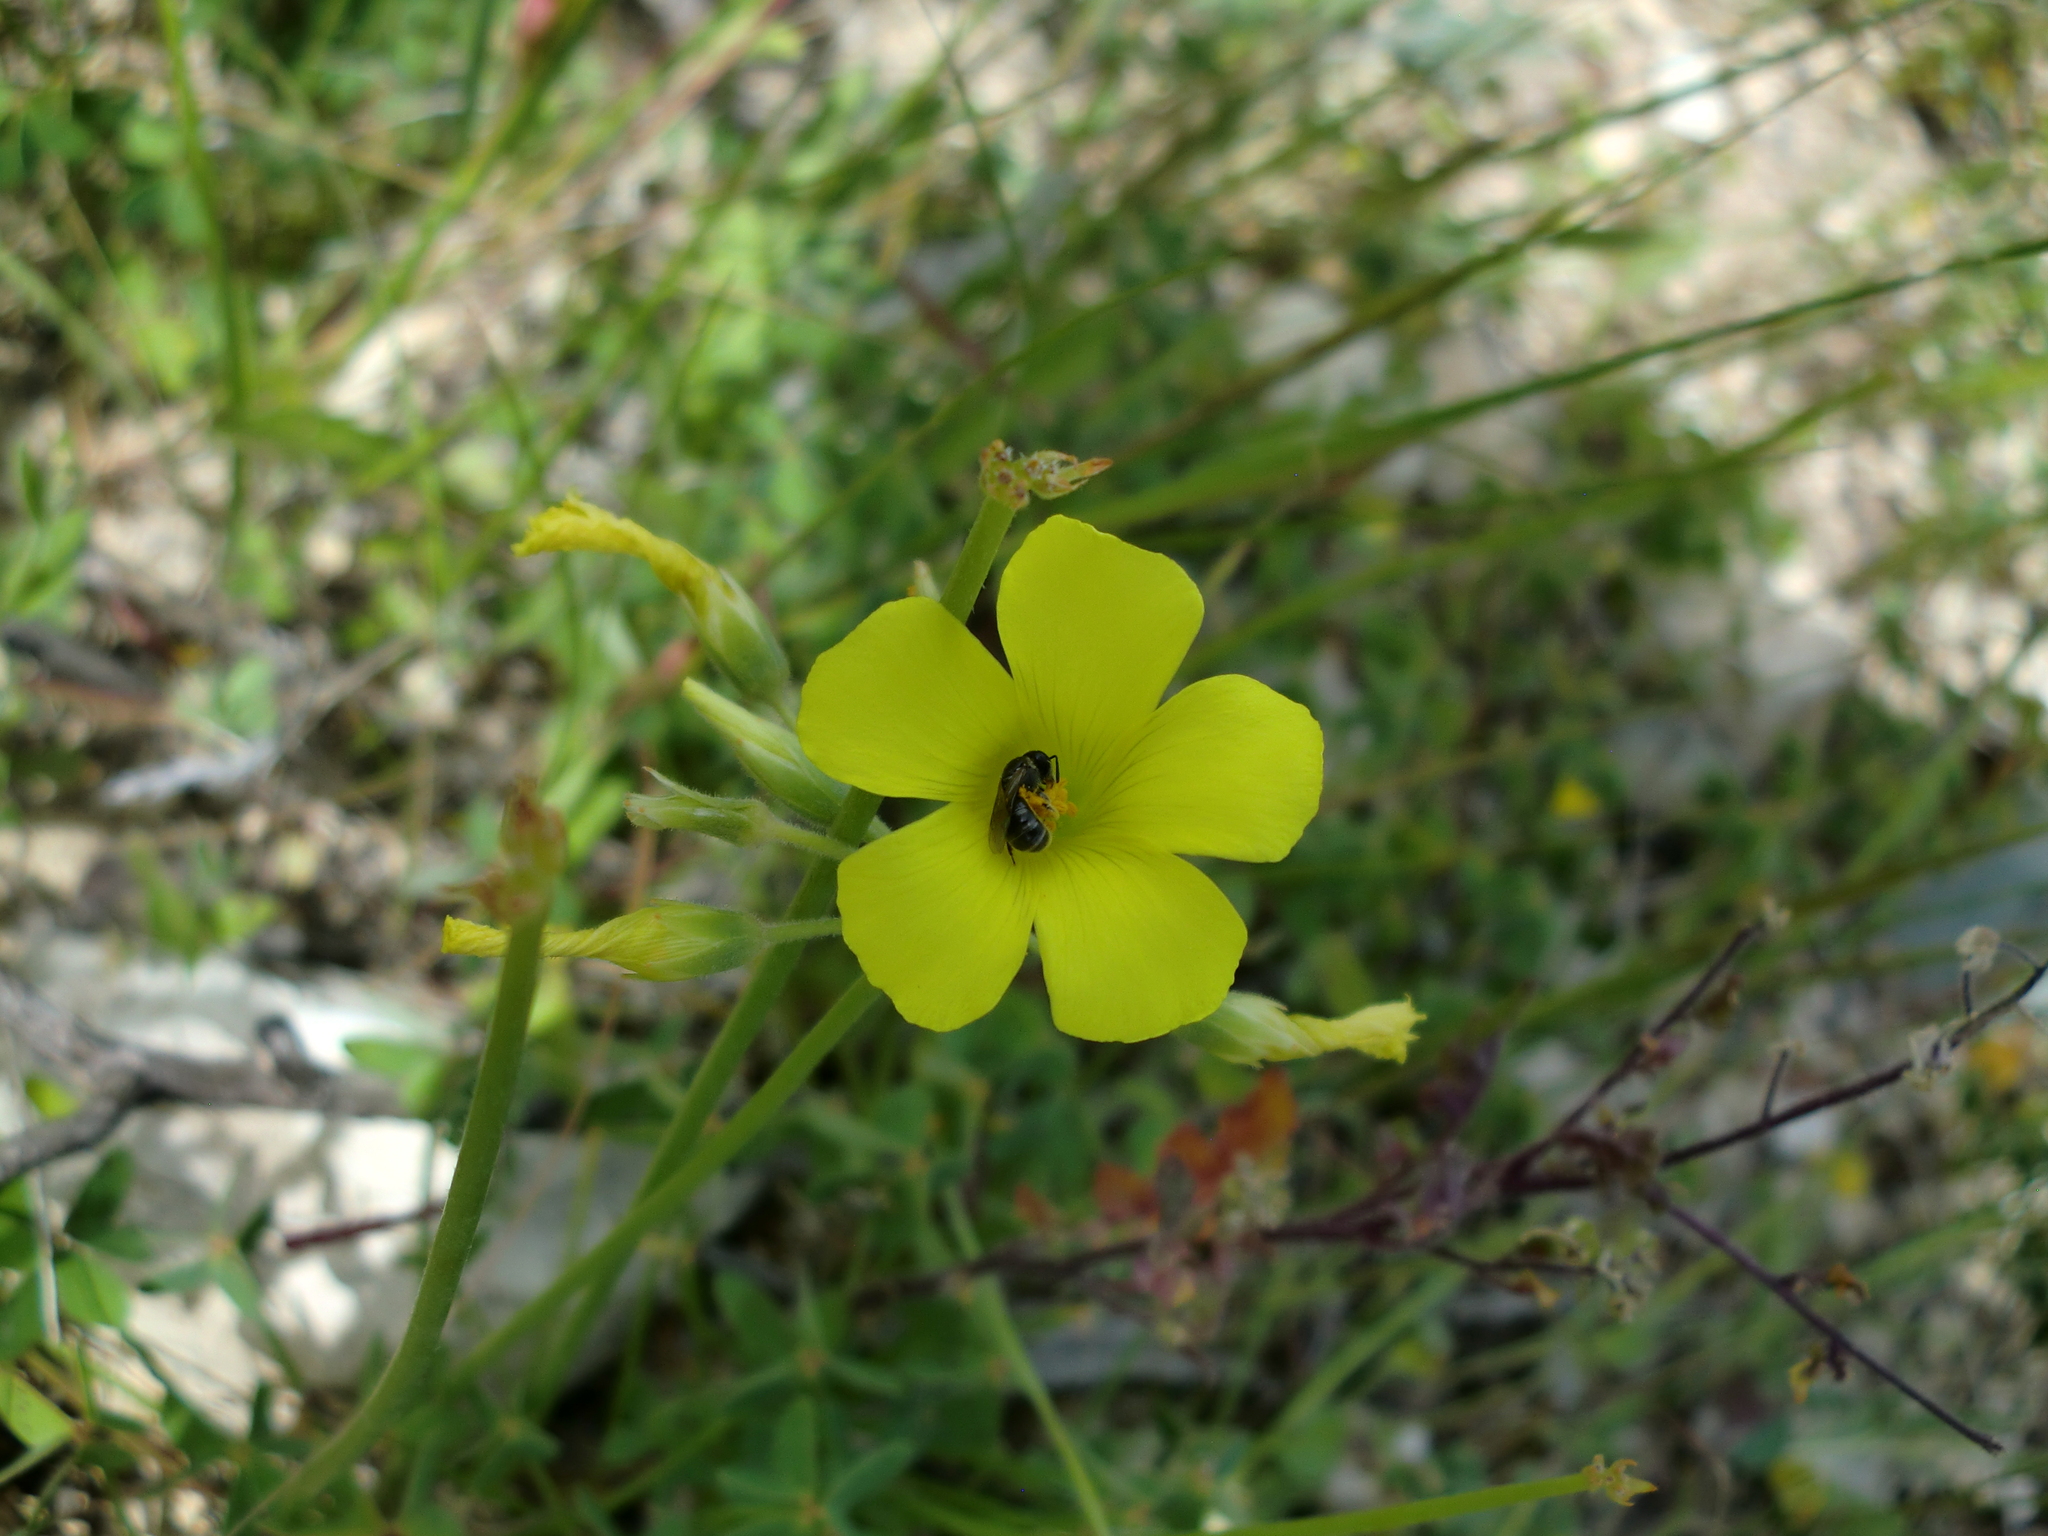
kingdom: Plantae
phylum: Tracheophyta
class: Magnoliopsida
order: Oxalidales
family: Oxalidaceae
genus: Oxalis
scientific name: Oxalis pes-caprae
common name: Bermuda-buttercup
